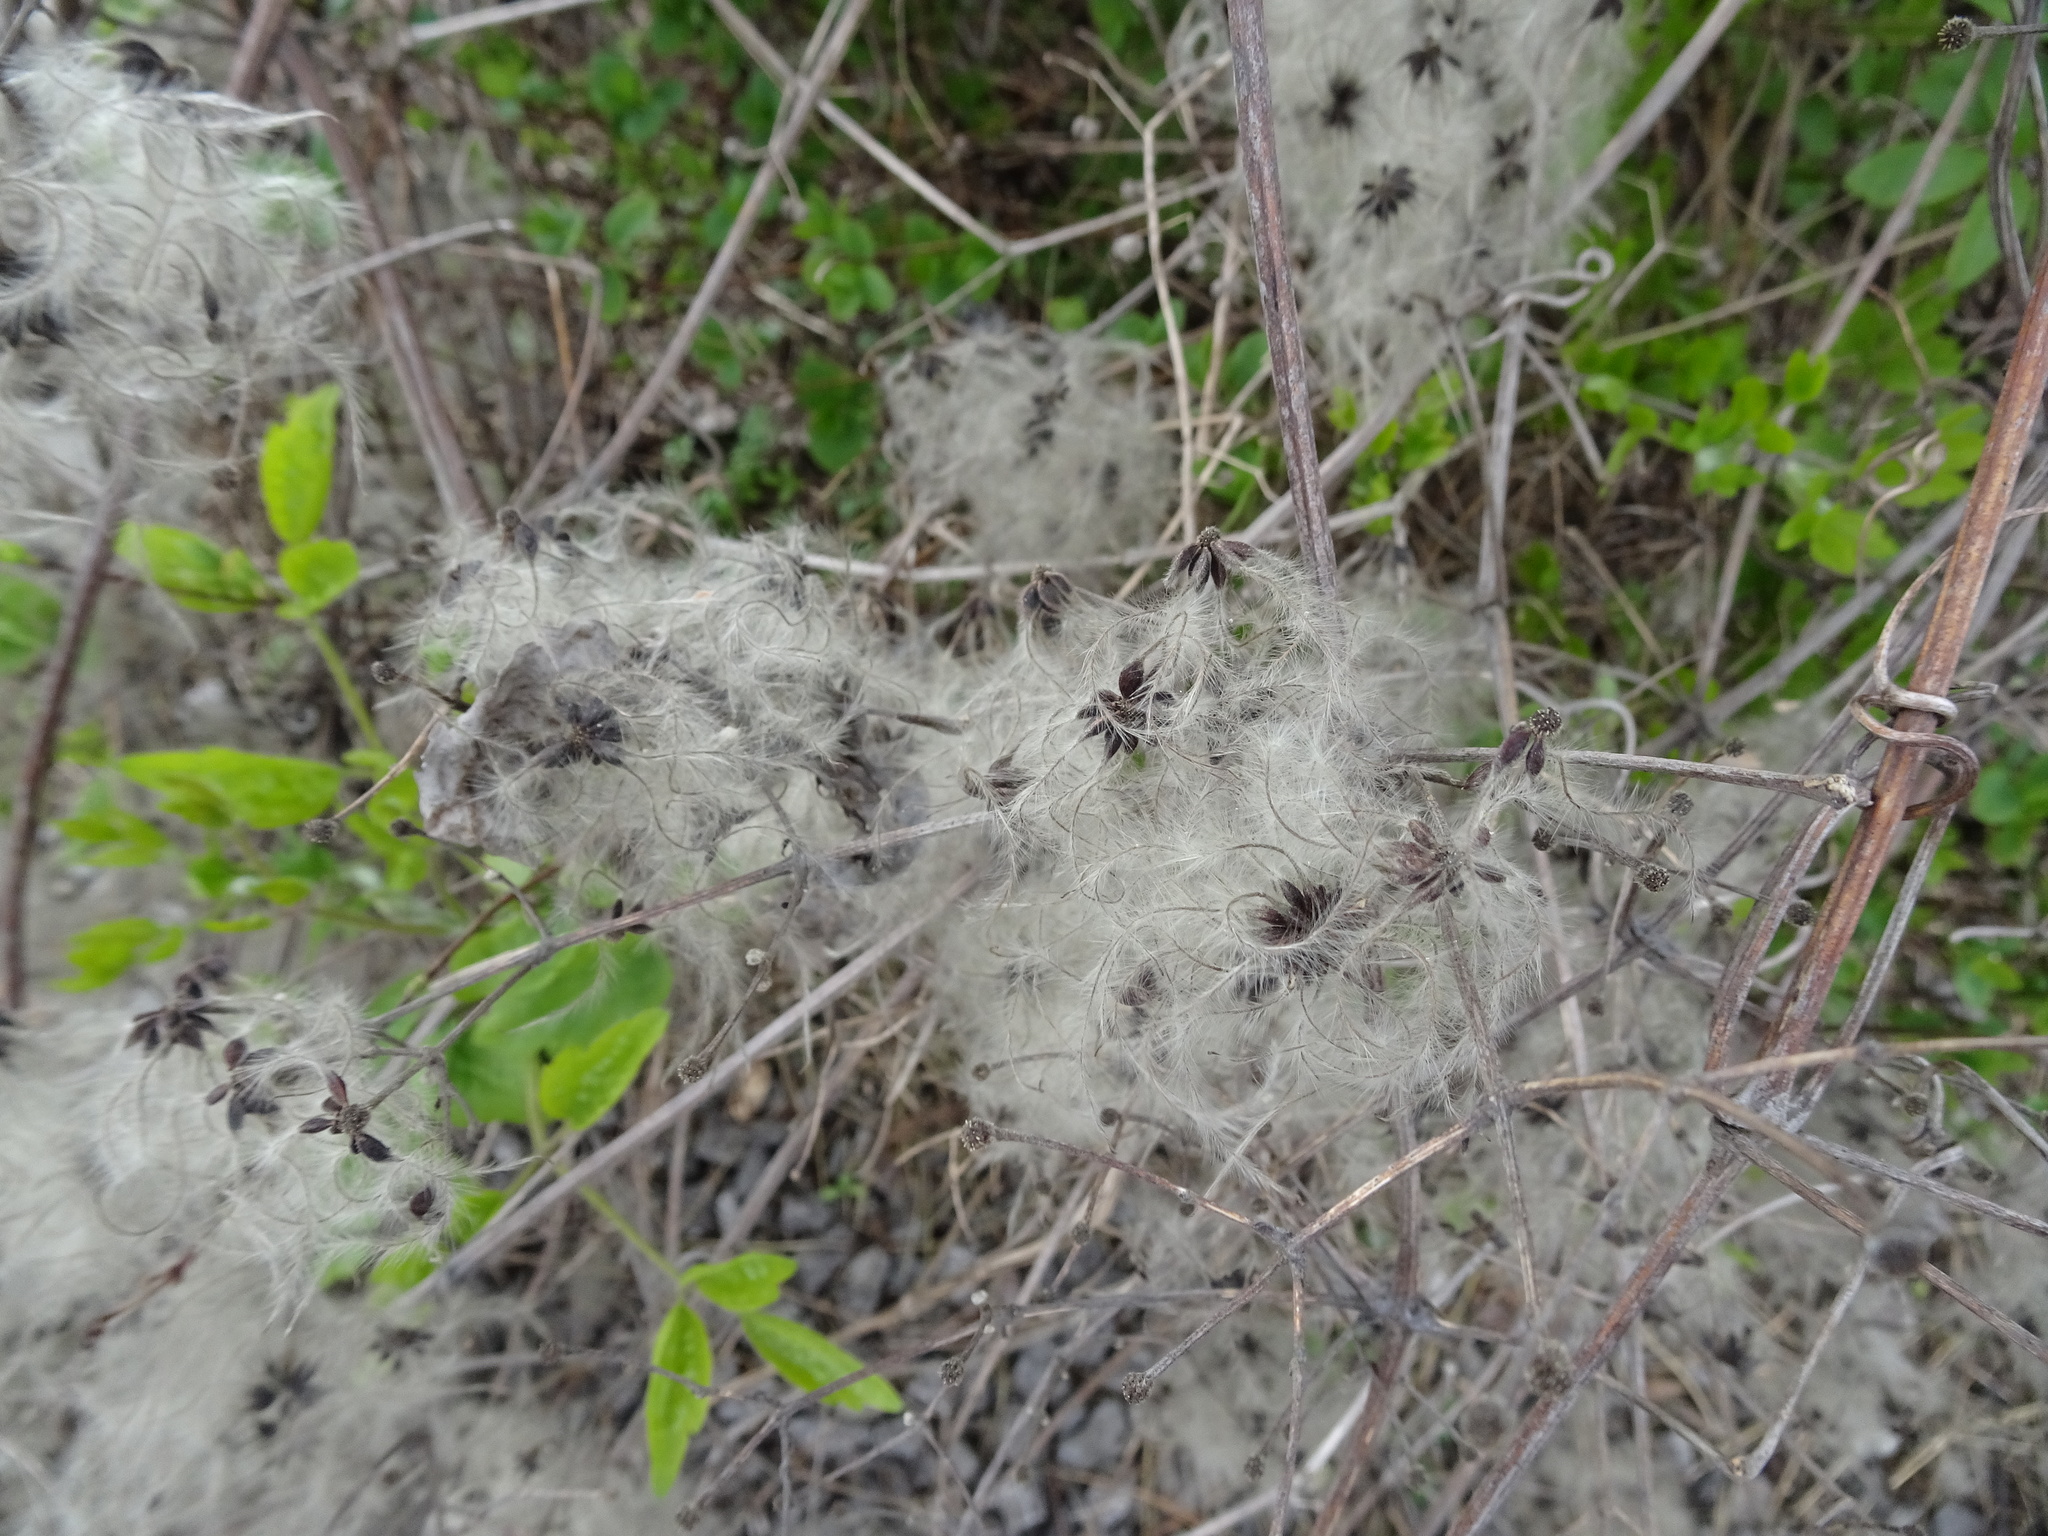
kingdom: Plantae
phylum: Tracheophyta
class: Magnoliopsida
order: Ranunculales
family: Ranunculaceae
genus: Clematis
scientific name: Clematis vitalba
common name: Evergreen clematis
